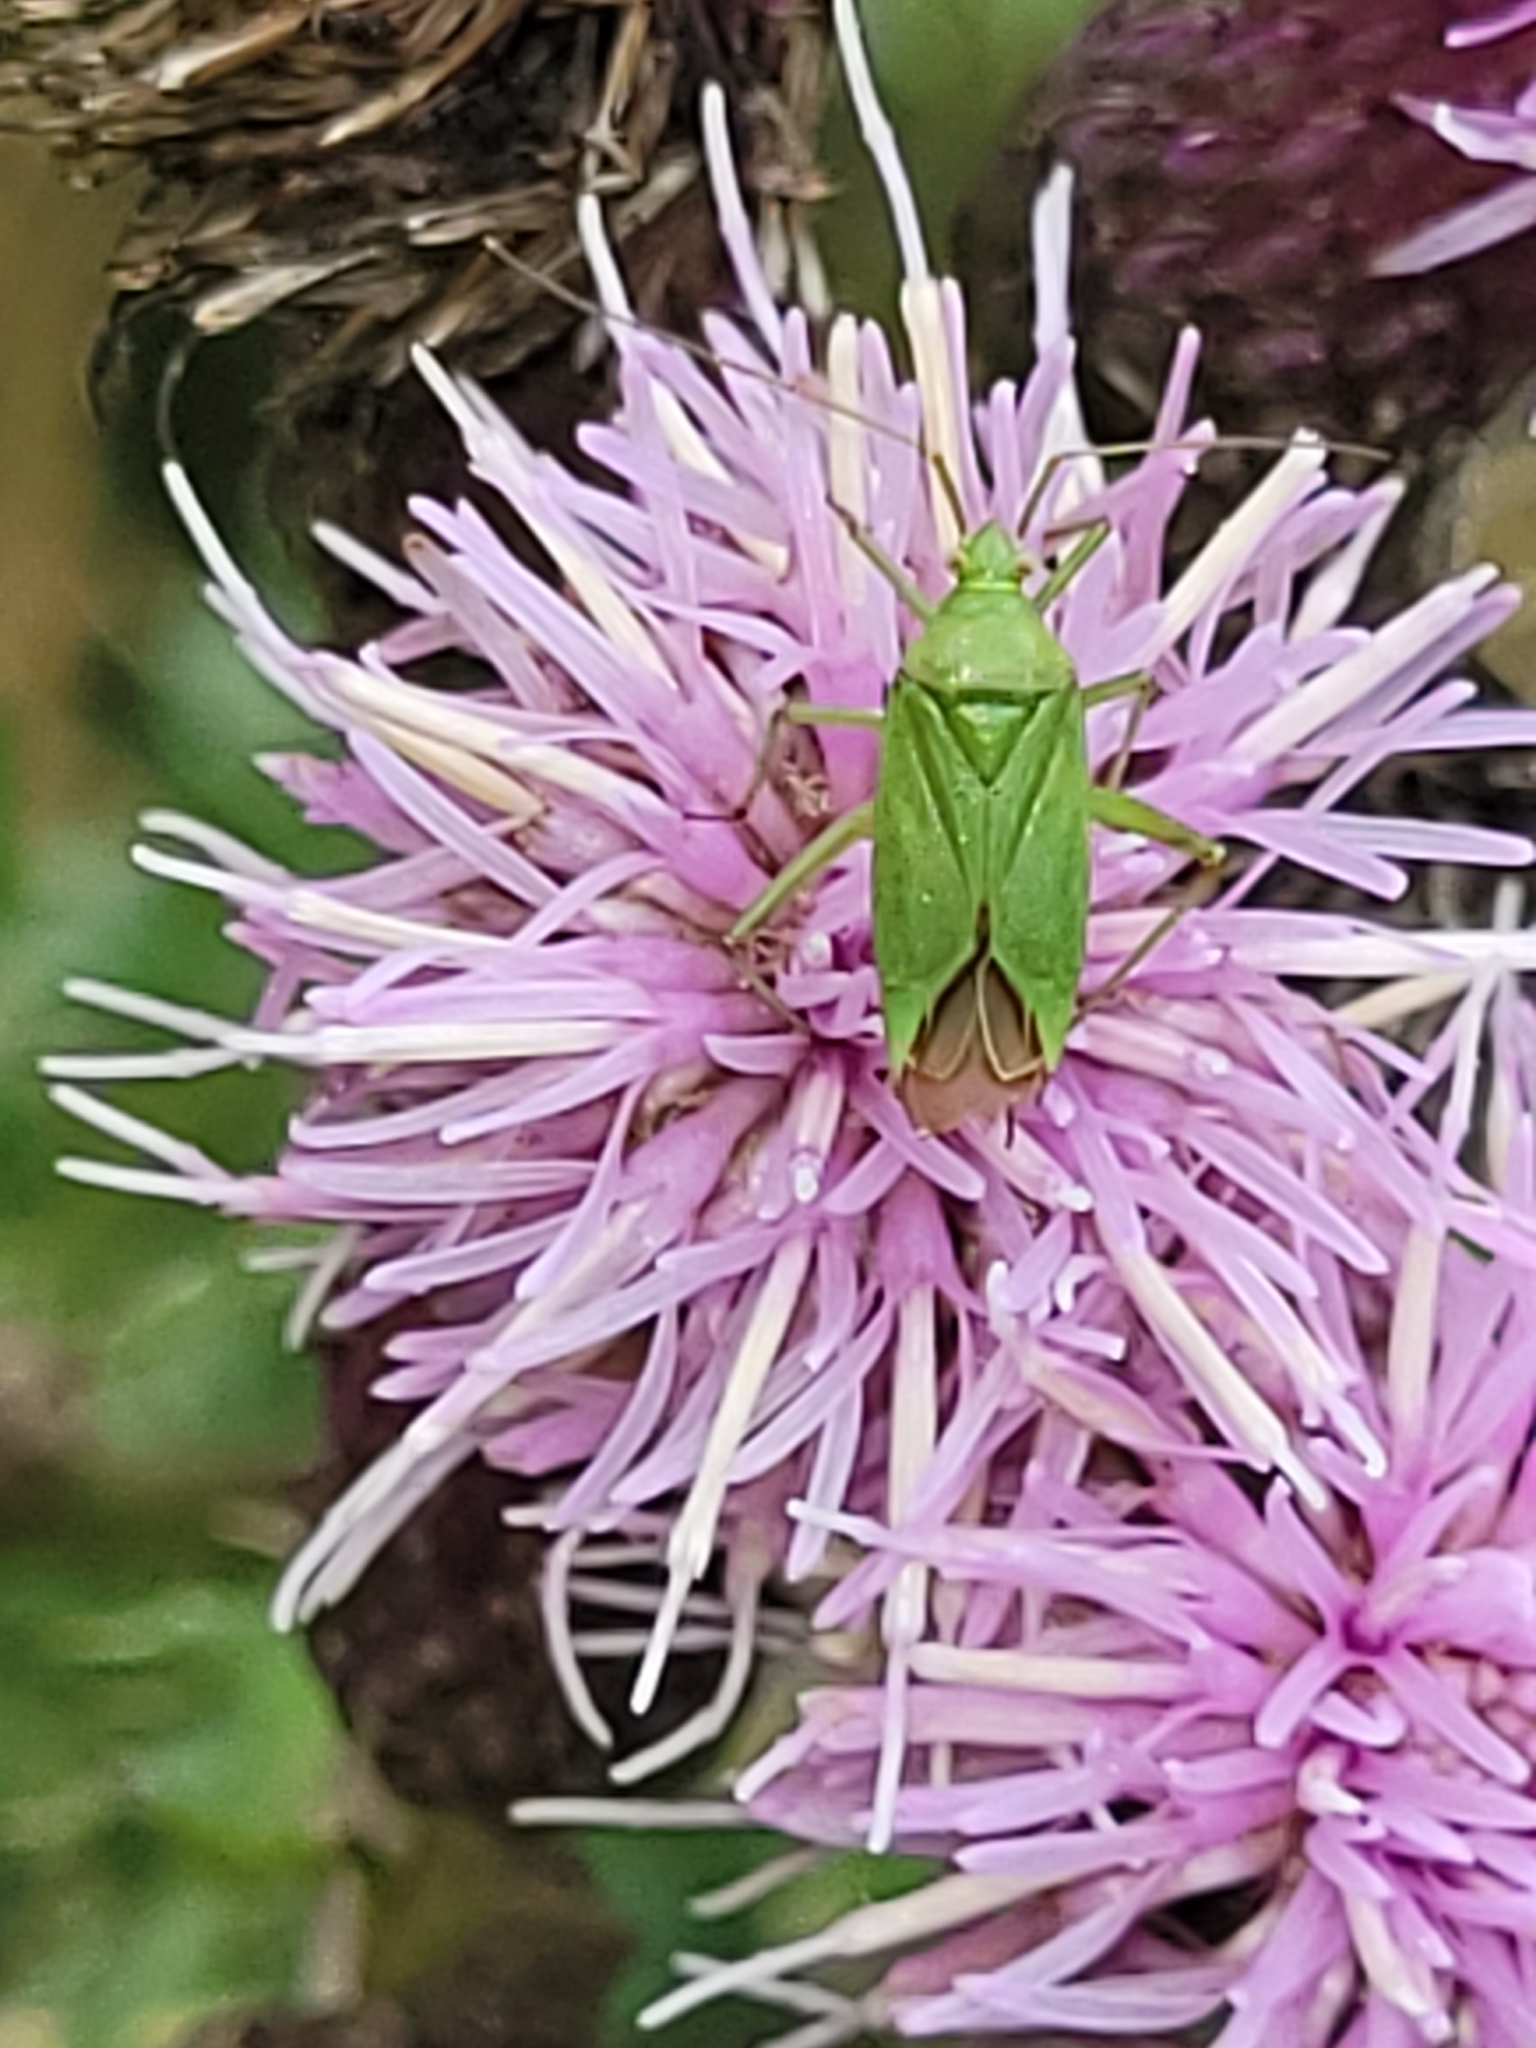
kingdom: Animalia
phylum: Arthropoda
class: Insecta
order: Hemiptera
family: Miridae
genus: Calocoris
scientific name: Calocoris affinis
